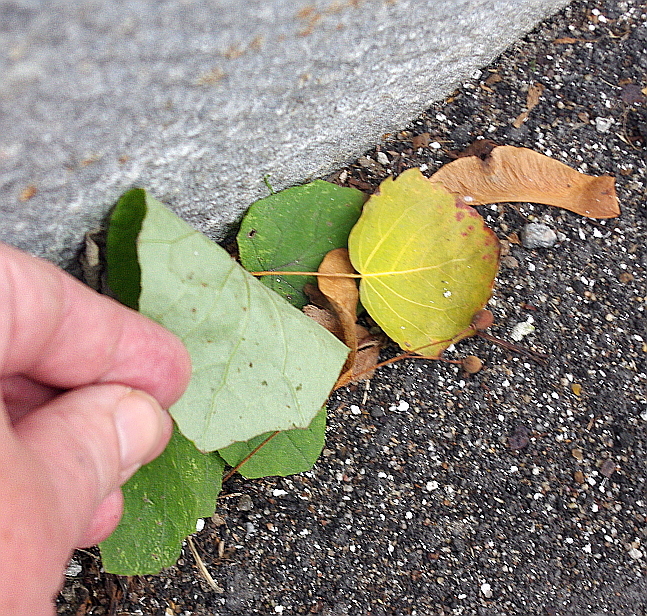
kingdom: Plantae
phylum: Tracheophyta
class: Magnoliopsida
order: Asterales
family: Asteraceae
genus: Tussilago
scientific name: Tussilago farfara
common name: Coltsfoot
